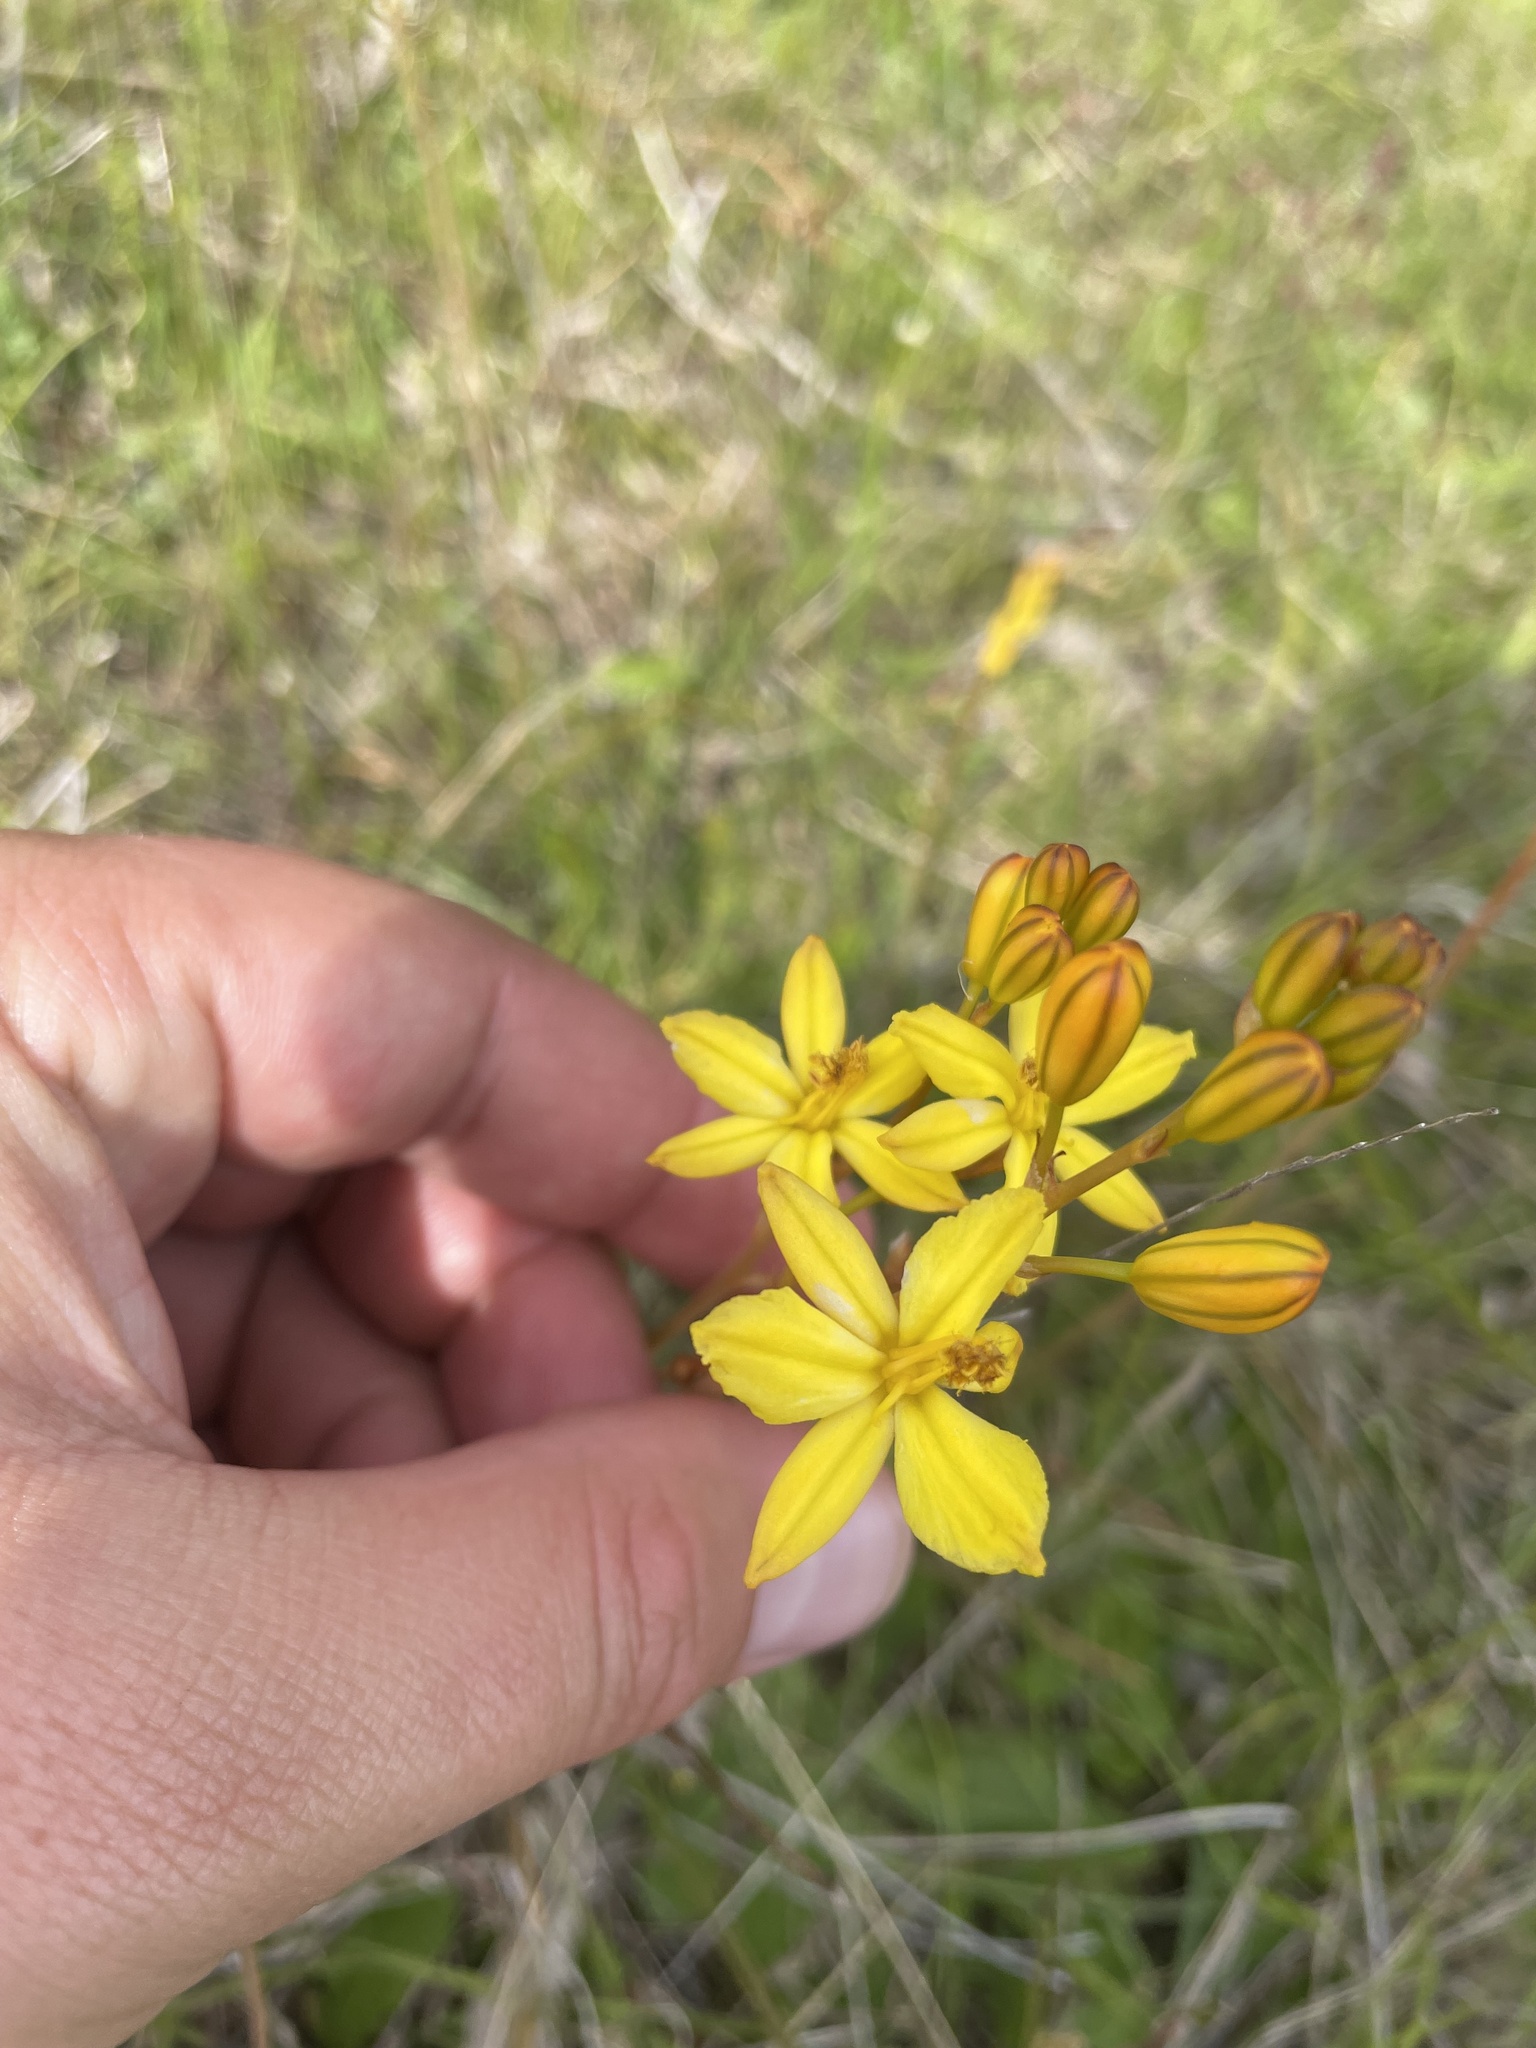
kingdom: Plantae
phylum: Tracheophyta
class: Liliopsida
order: Asparagales
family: Asphodelaceae
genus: Bulbine
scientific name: Bulbine bulbosa
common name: Golden-lily
